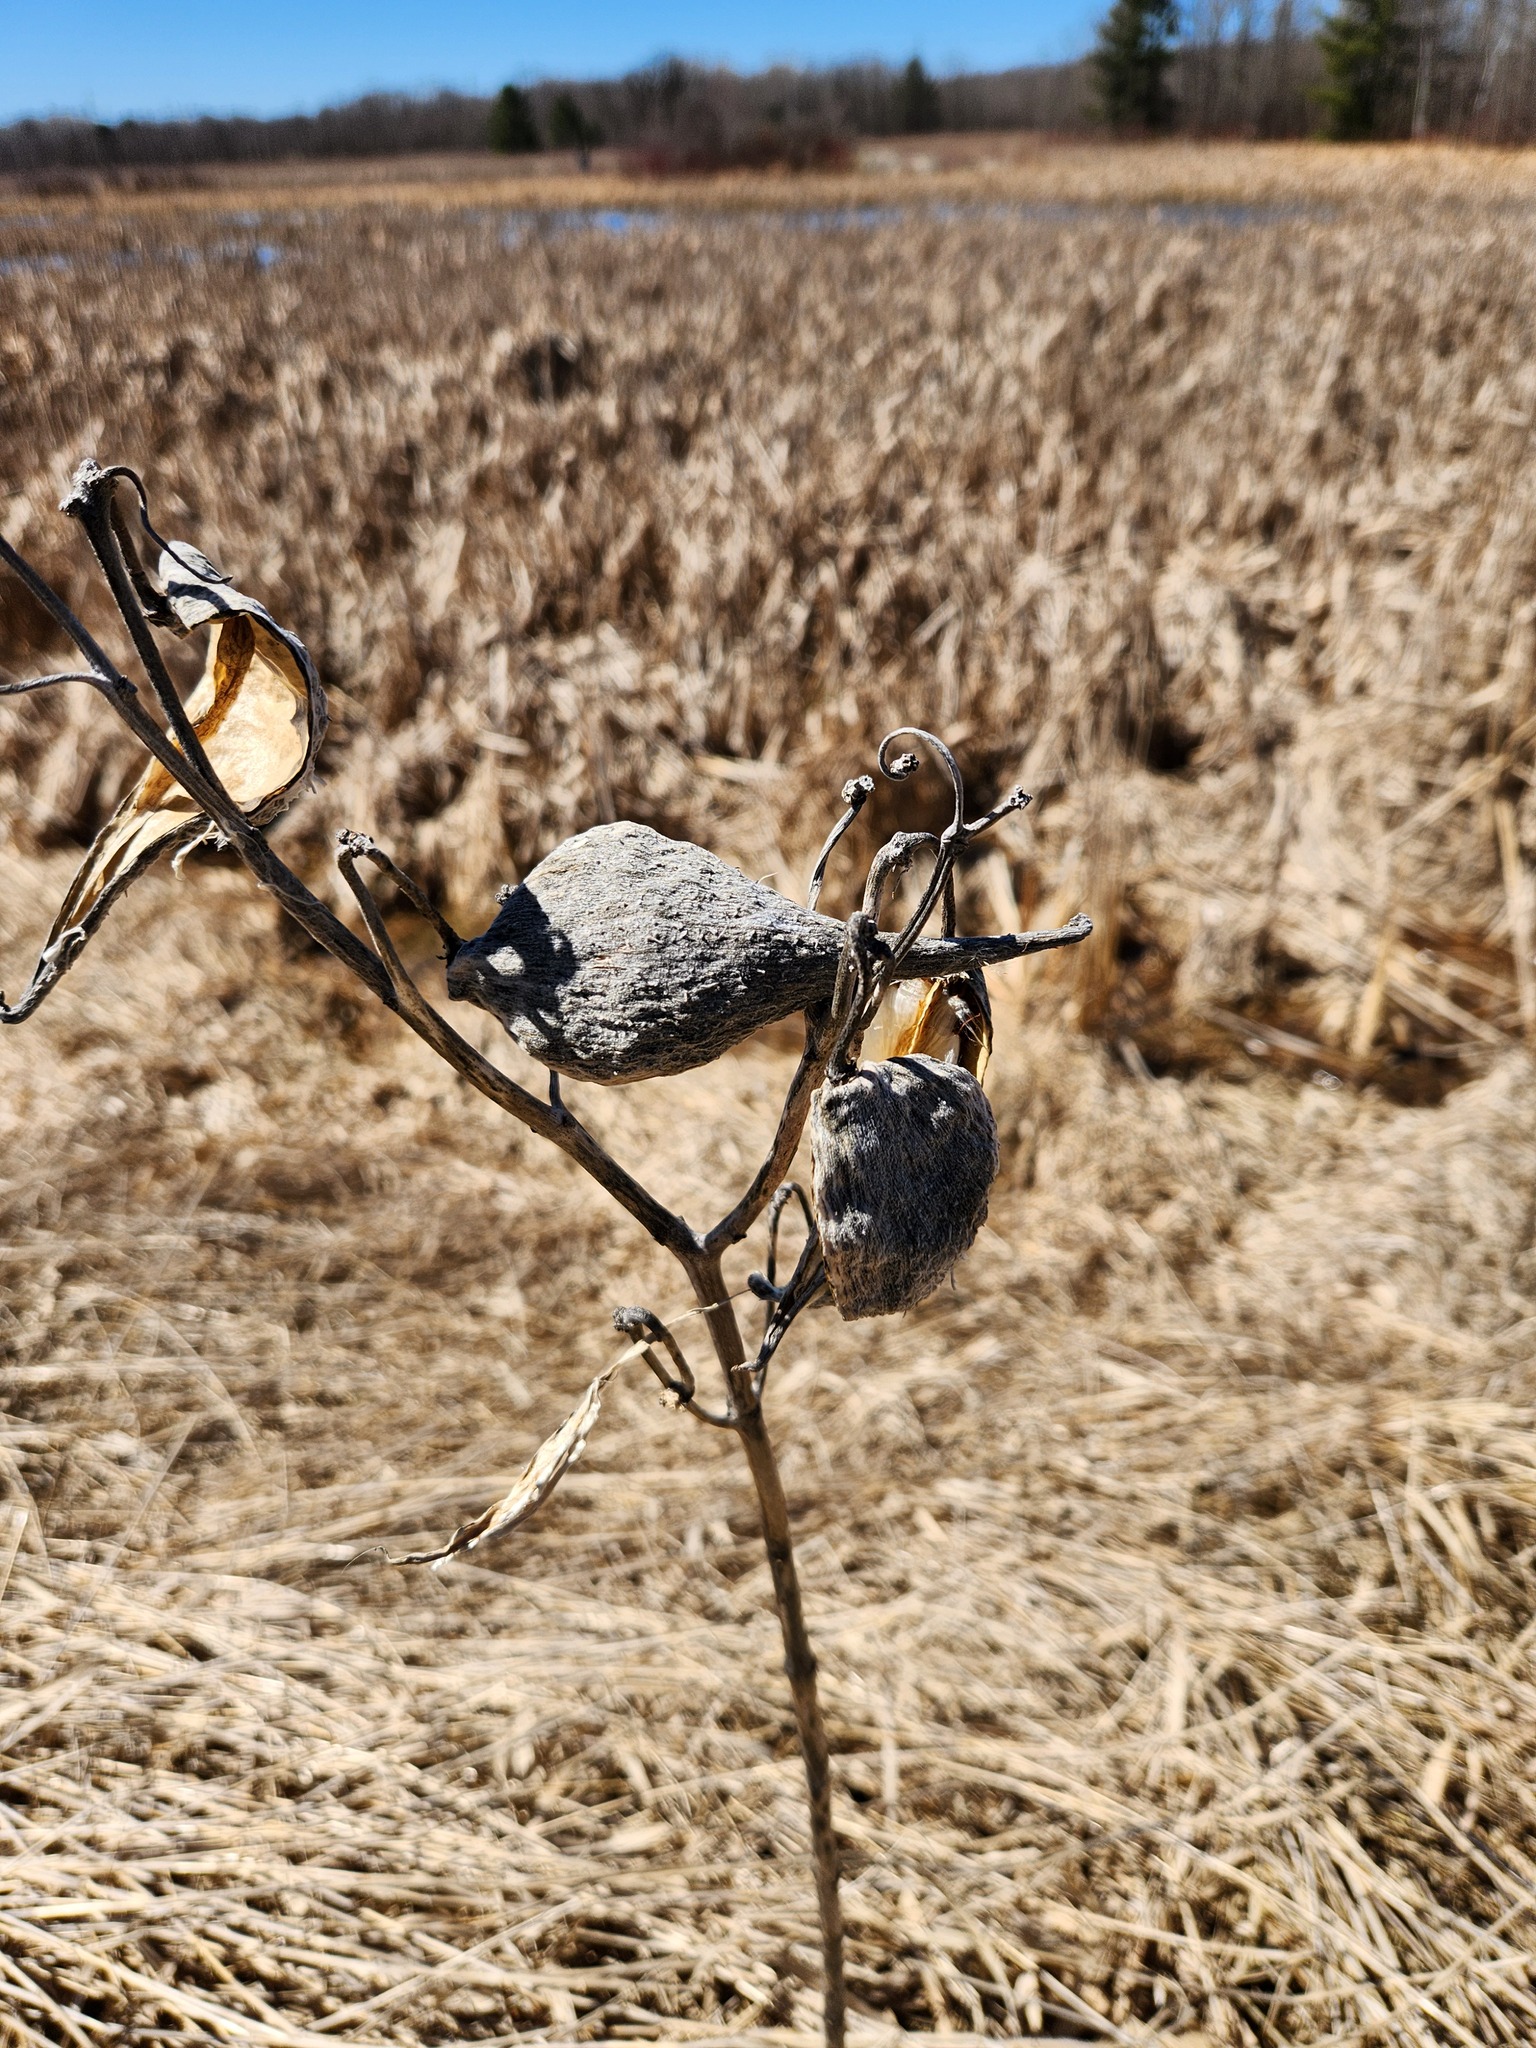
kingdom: Plantae
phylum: Tracheophyta
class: Magnoliopsida
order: Gentianales
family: Apocynaceae
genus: Asclepias
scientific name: Asclepias syriaca
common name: Common milkweed
